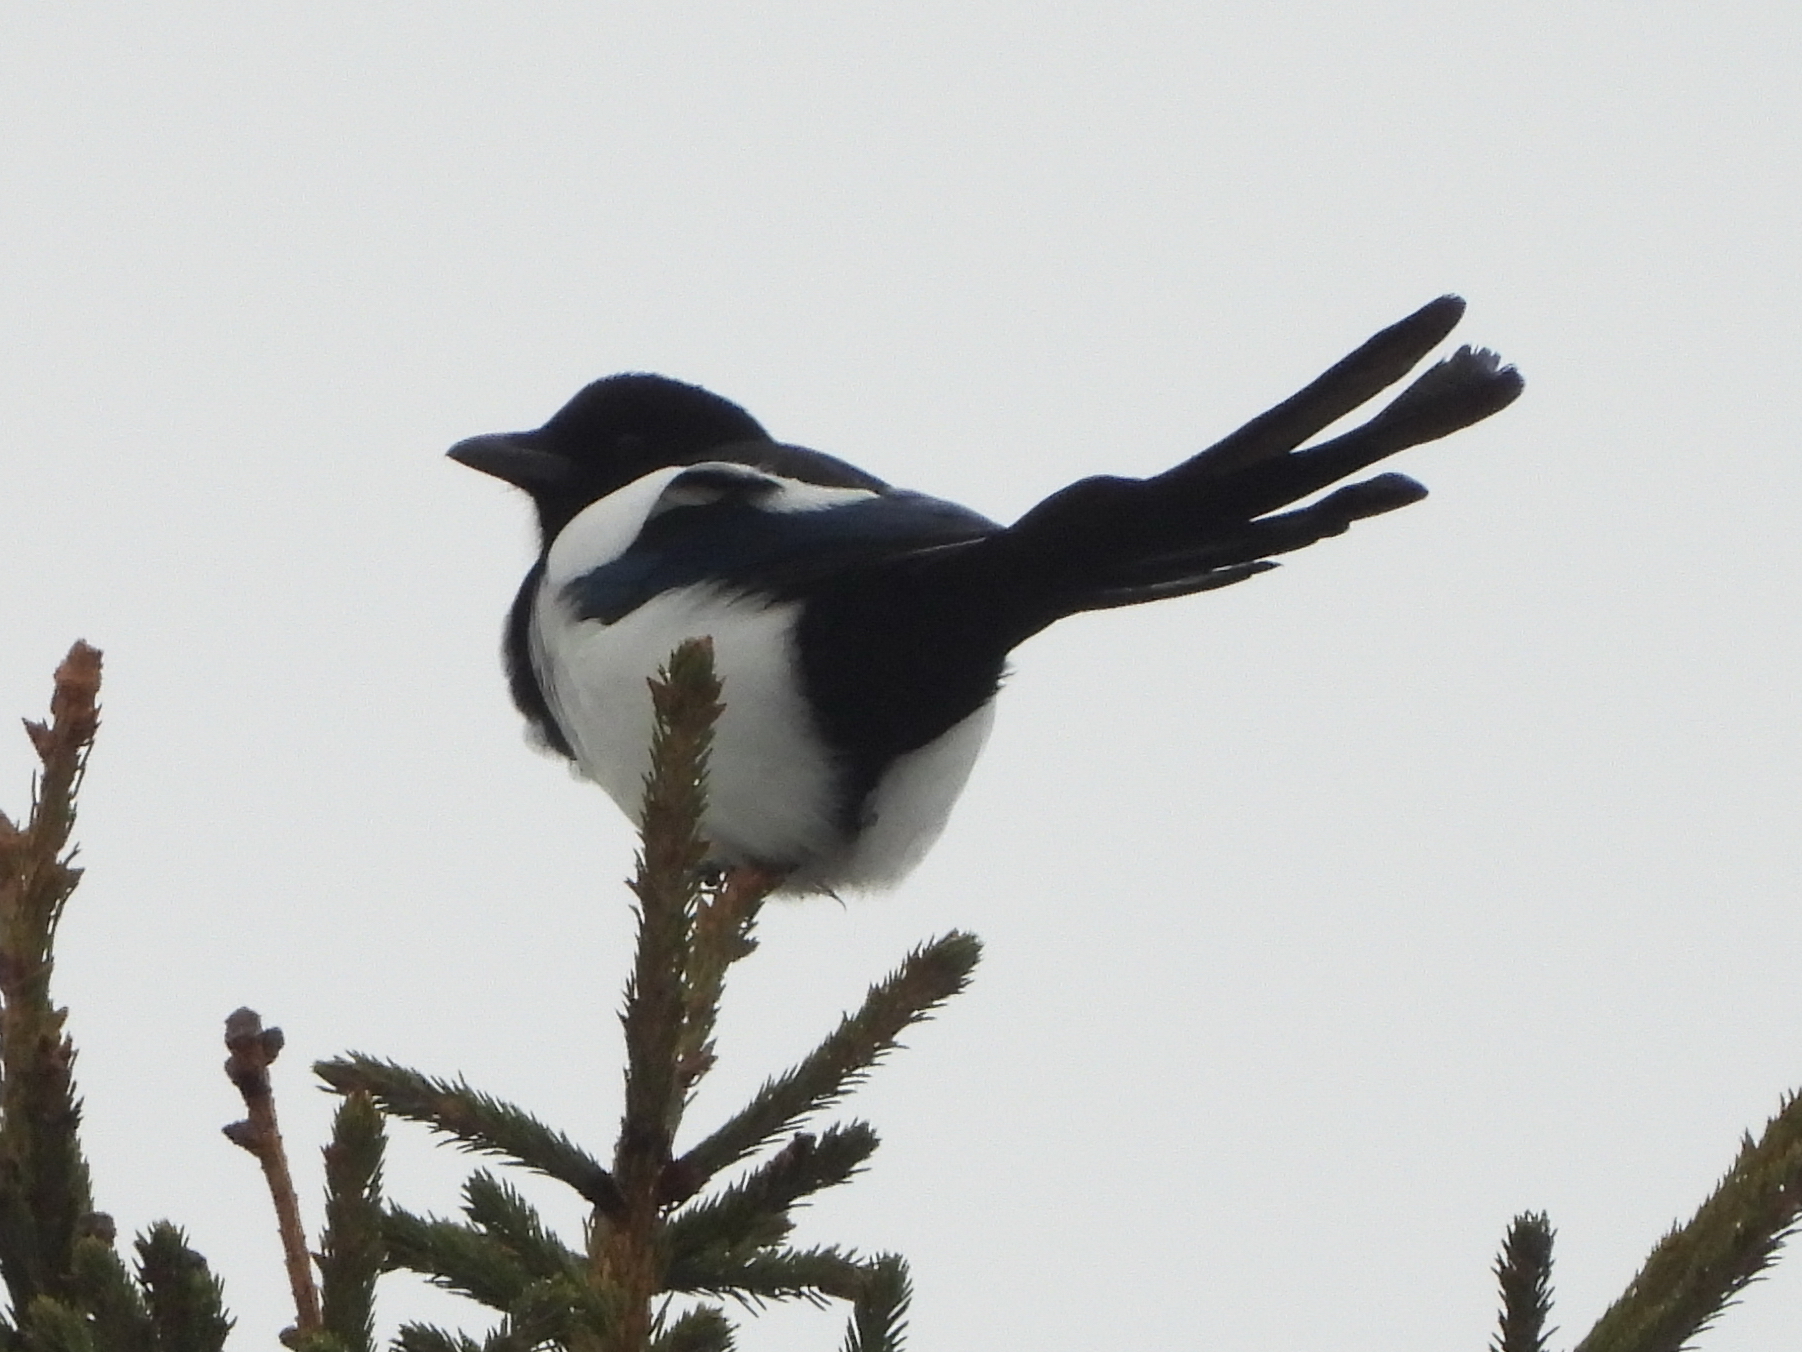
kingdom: Animalia
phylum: Chordata
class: Aves
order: Passeriformes
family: Corvidae
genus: Pica
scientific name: Pica pica
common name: Eurasian magpie
